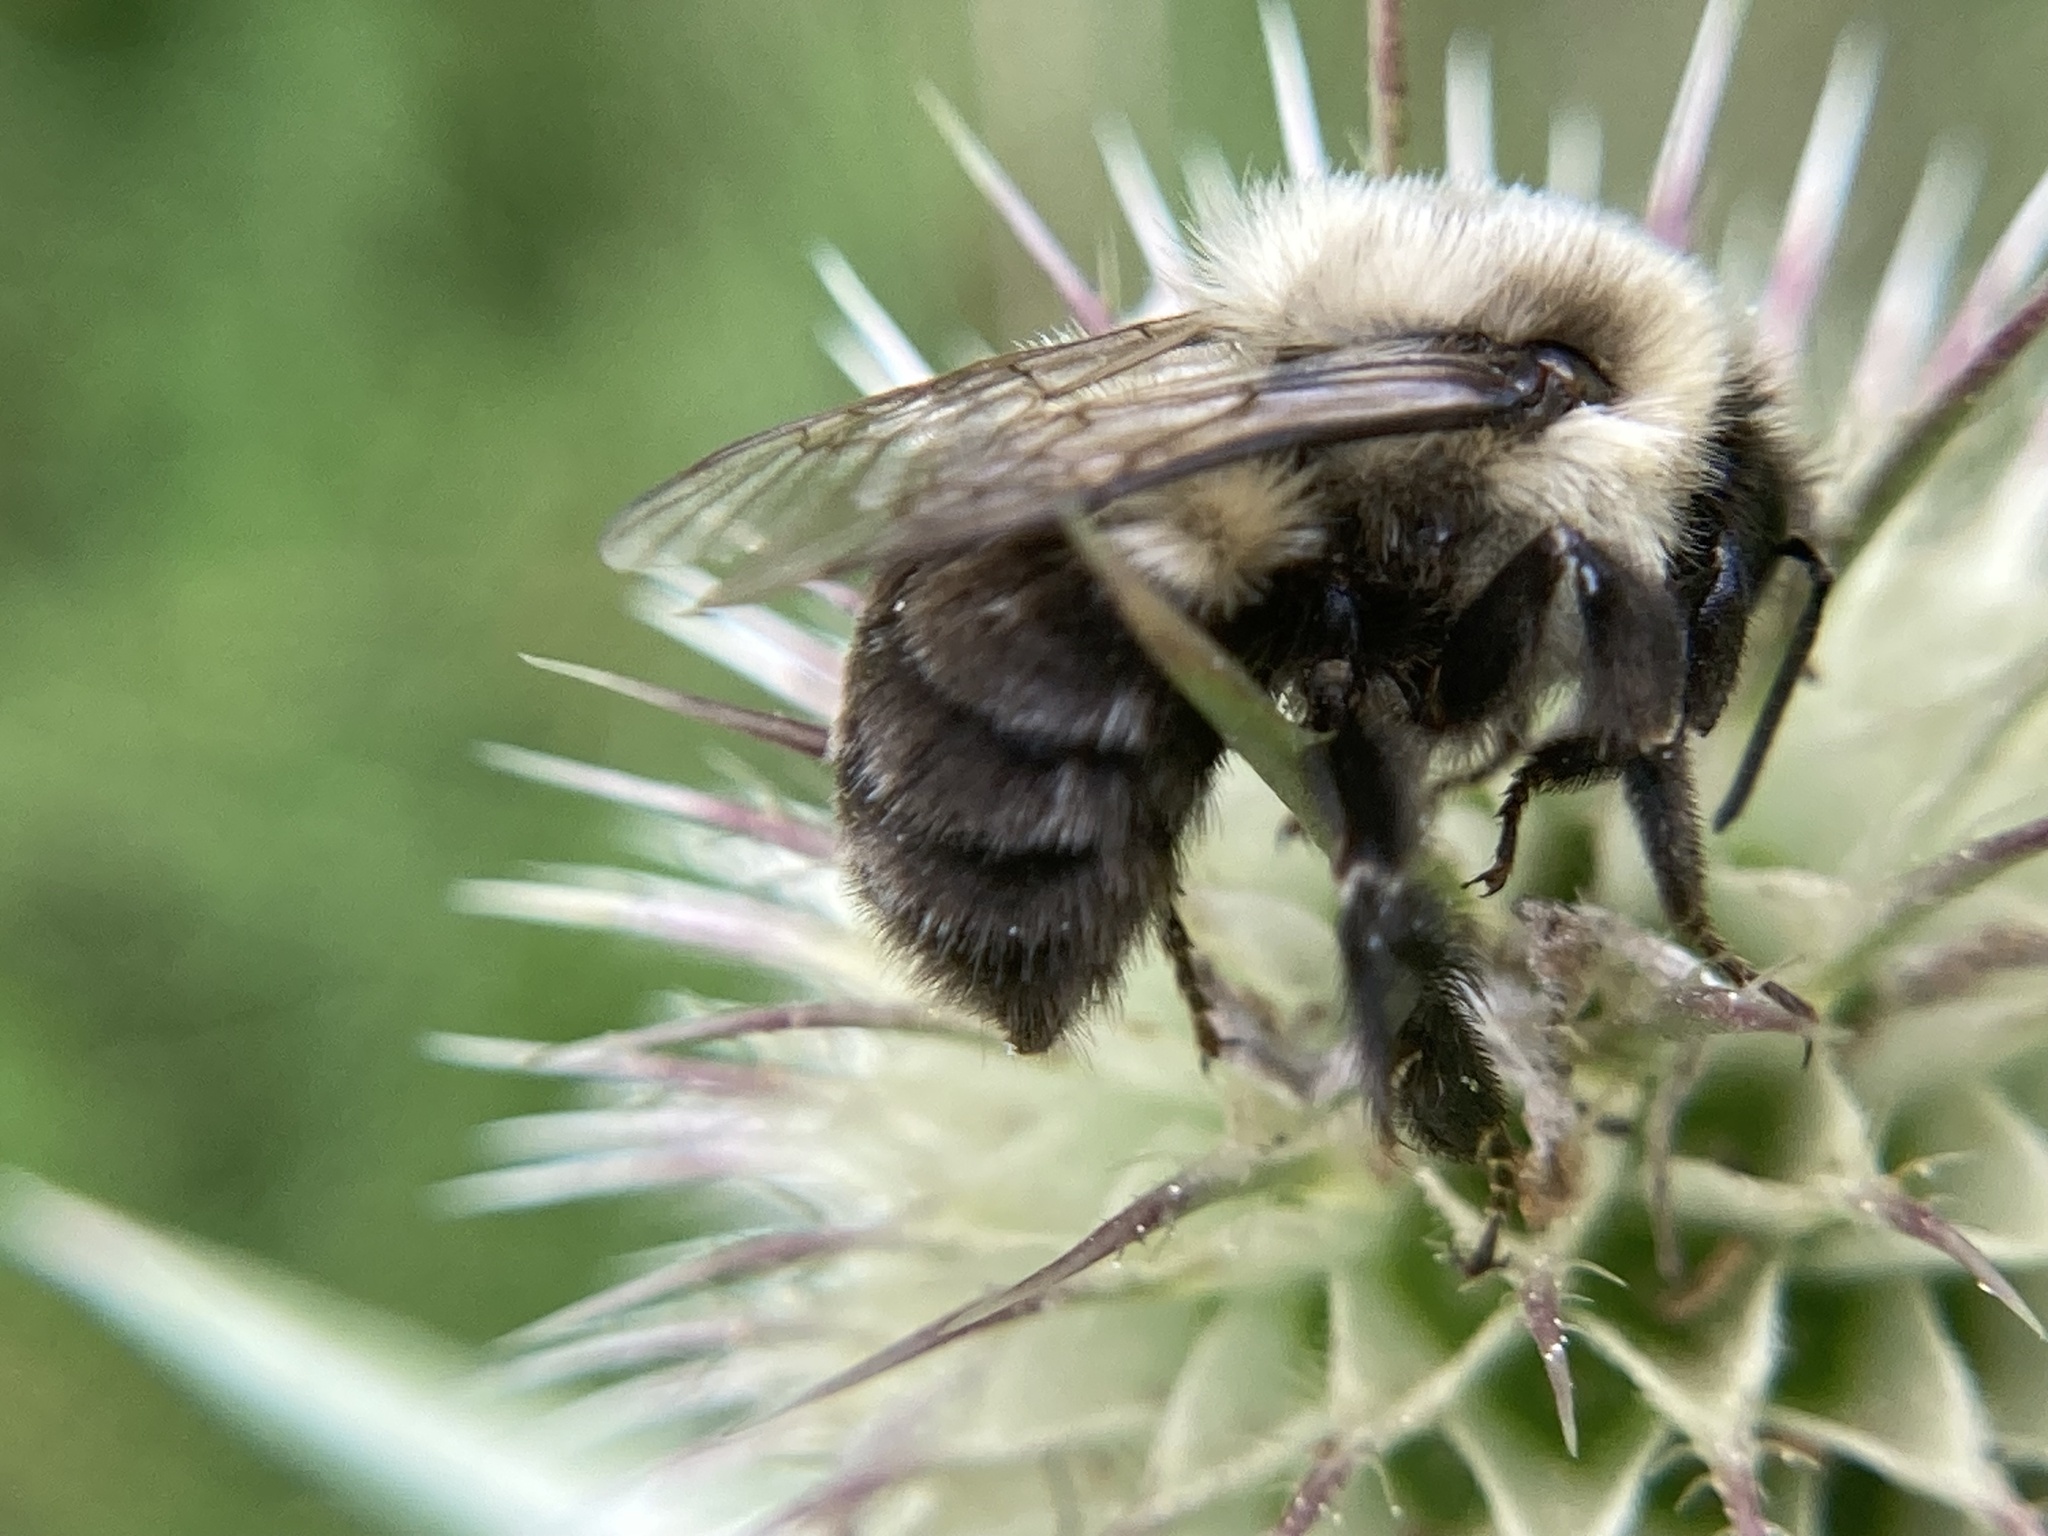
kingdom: Animalia
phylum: Arthropoda
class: Insecta
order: Hymenoptera
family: Apidae
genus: Bombus
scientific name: Bombus impatiens
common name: Common eastern bumble bee
